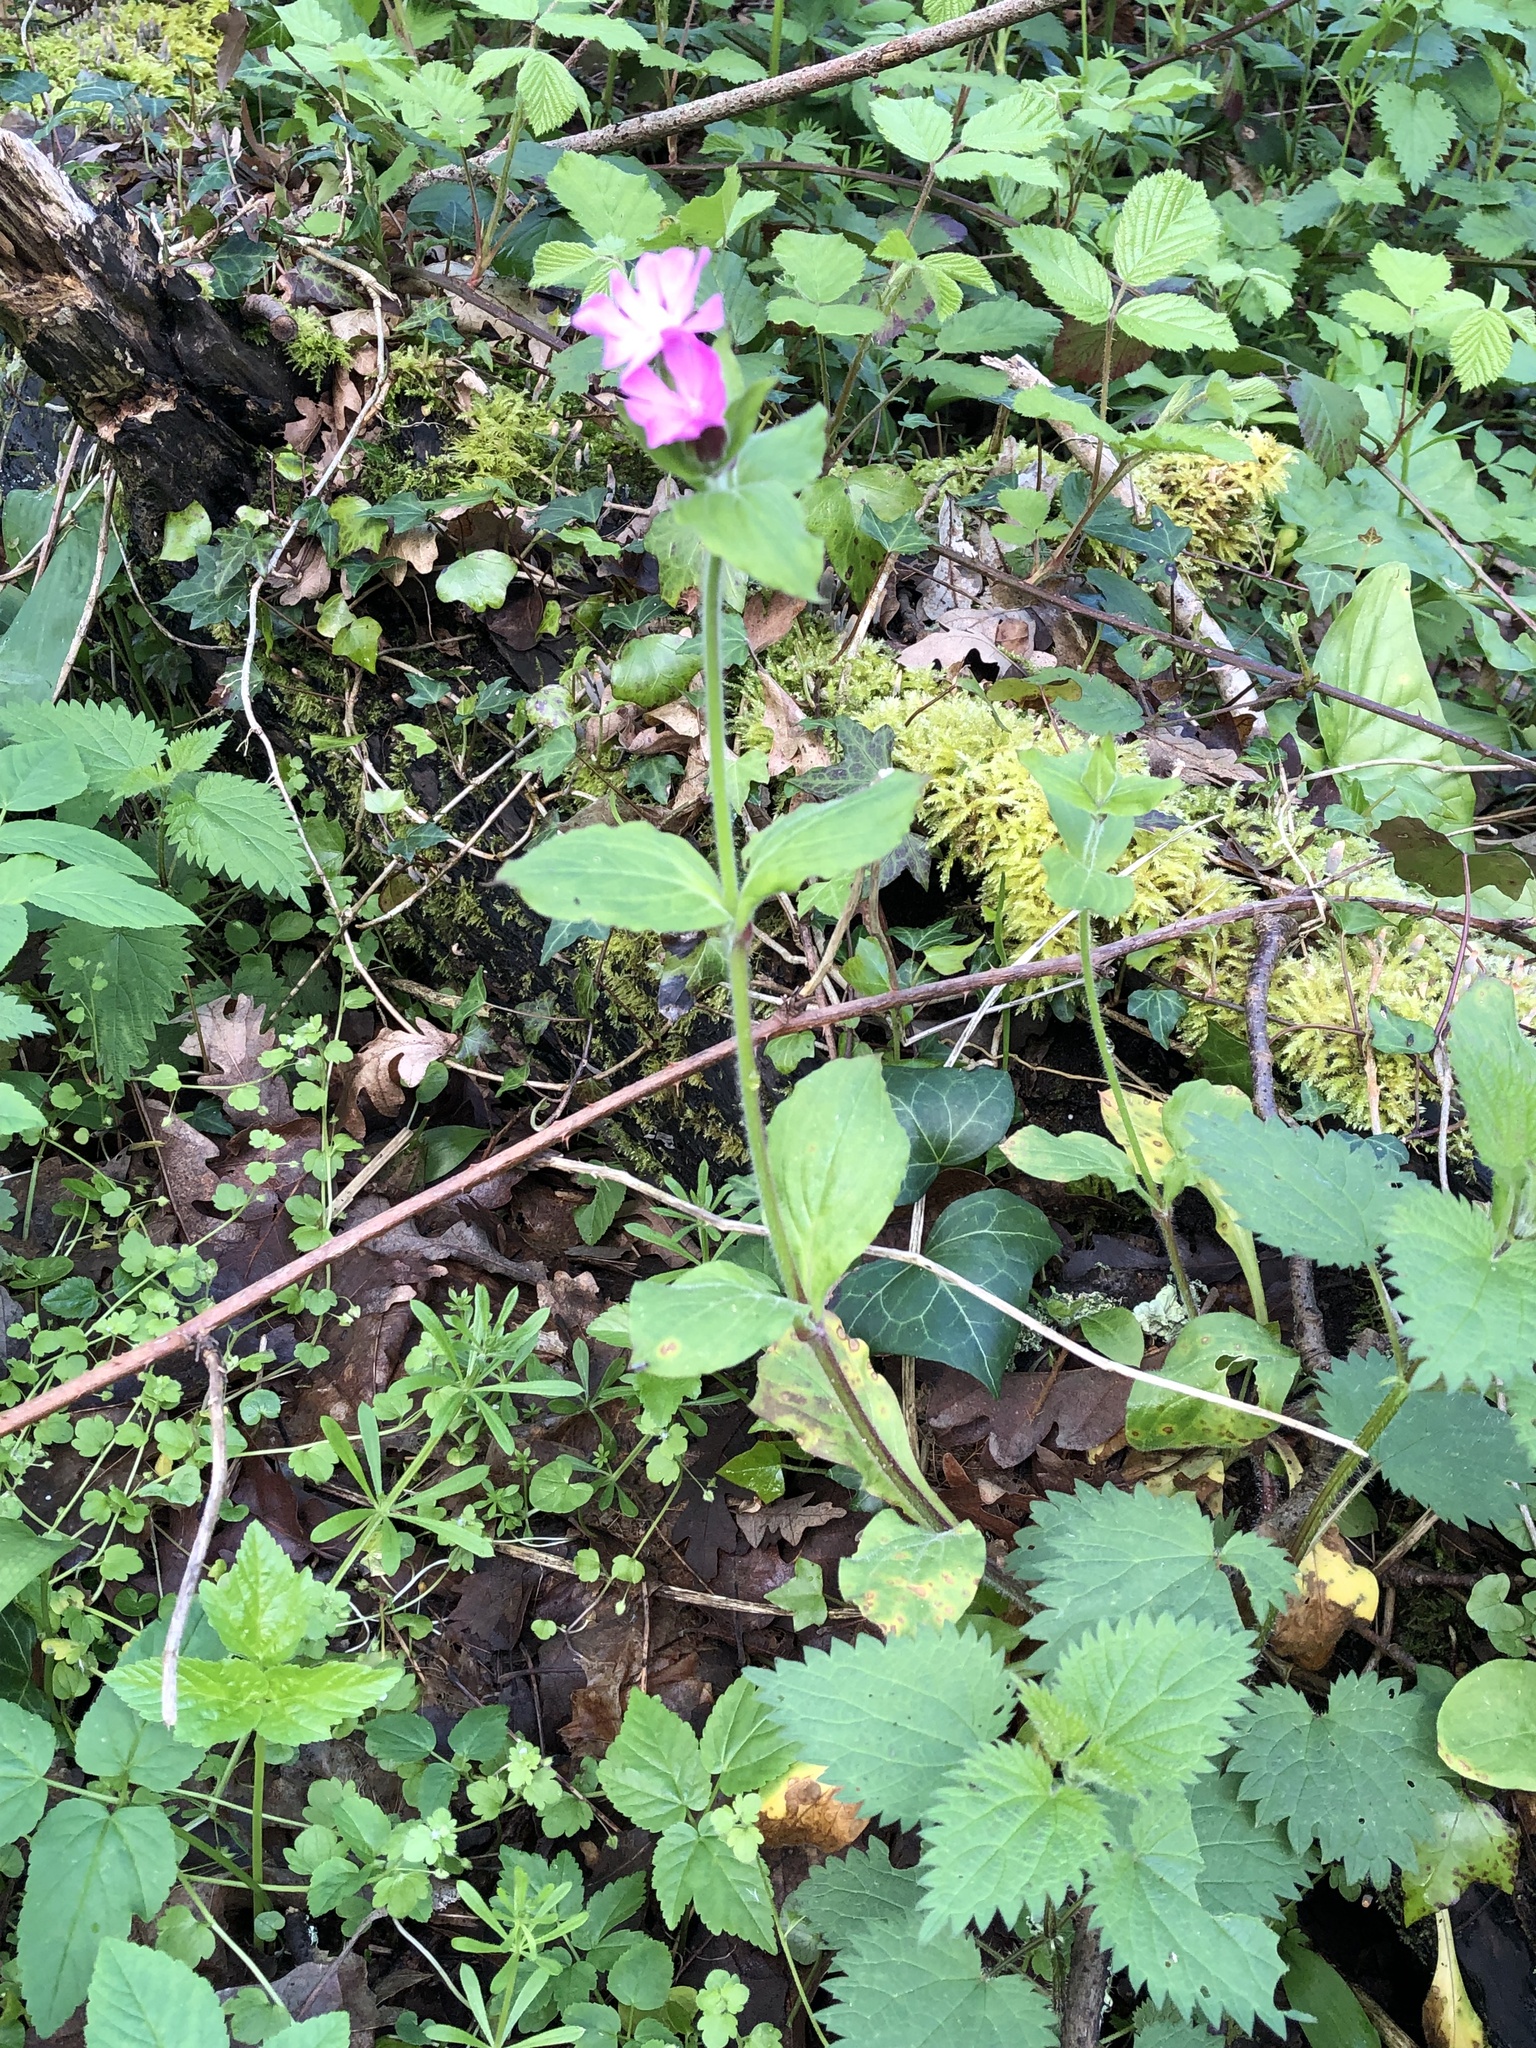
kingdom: Plantae
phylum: Tracheophyta
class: Magnoliopsida
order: Caryophyllales
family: Caryophyllaceae
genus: Silene
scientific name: Silene dioica
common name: Red campion
